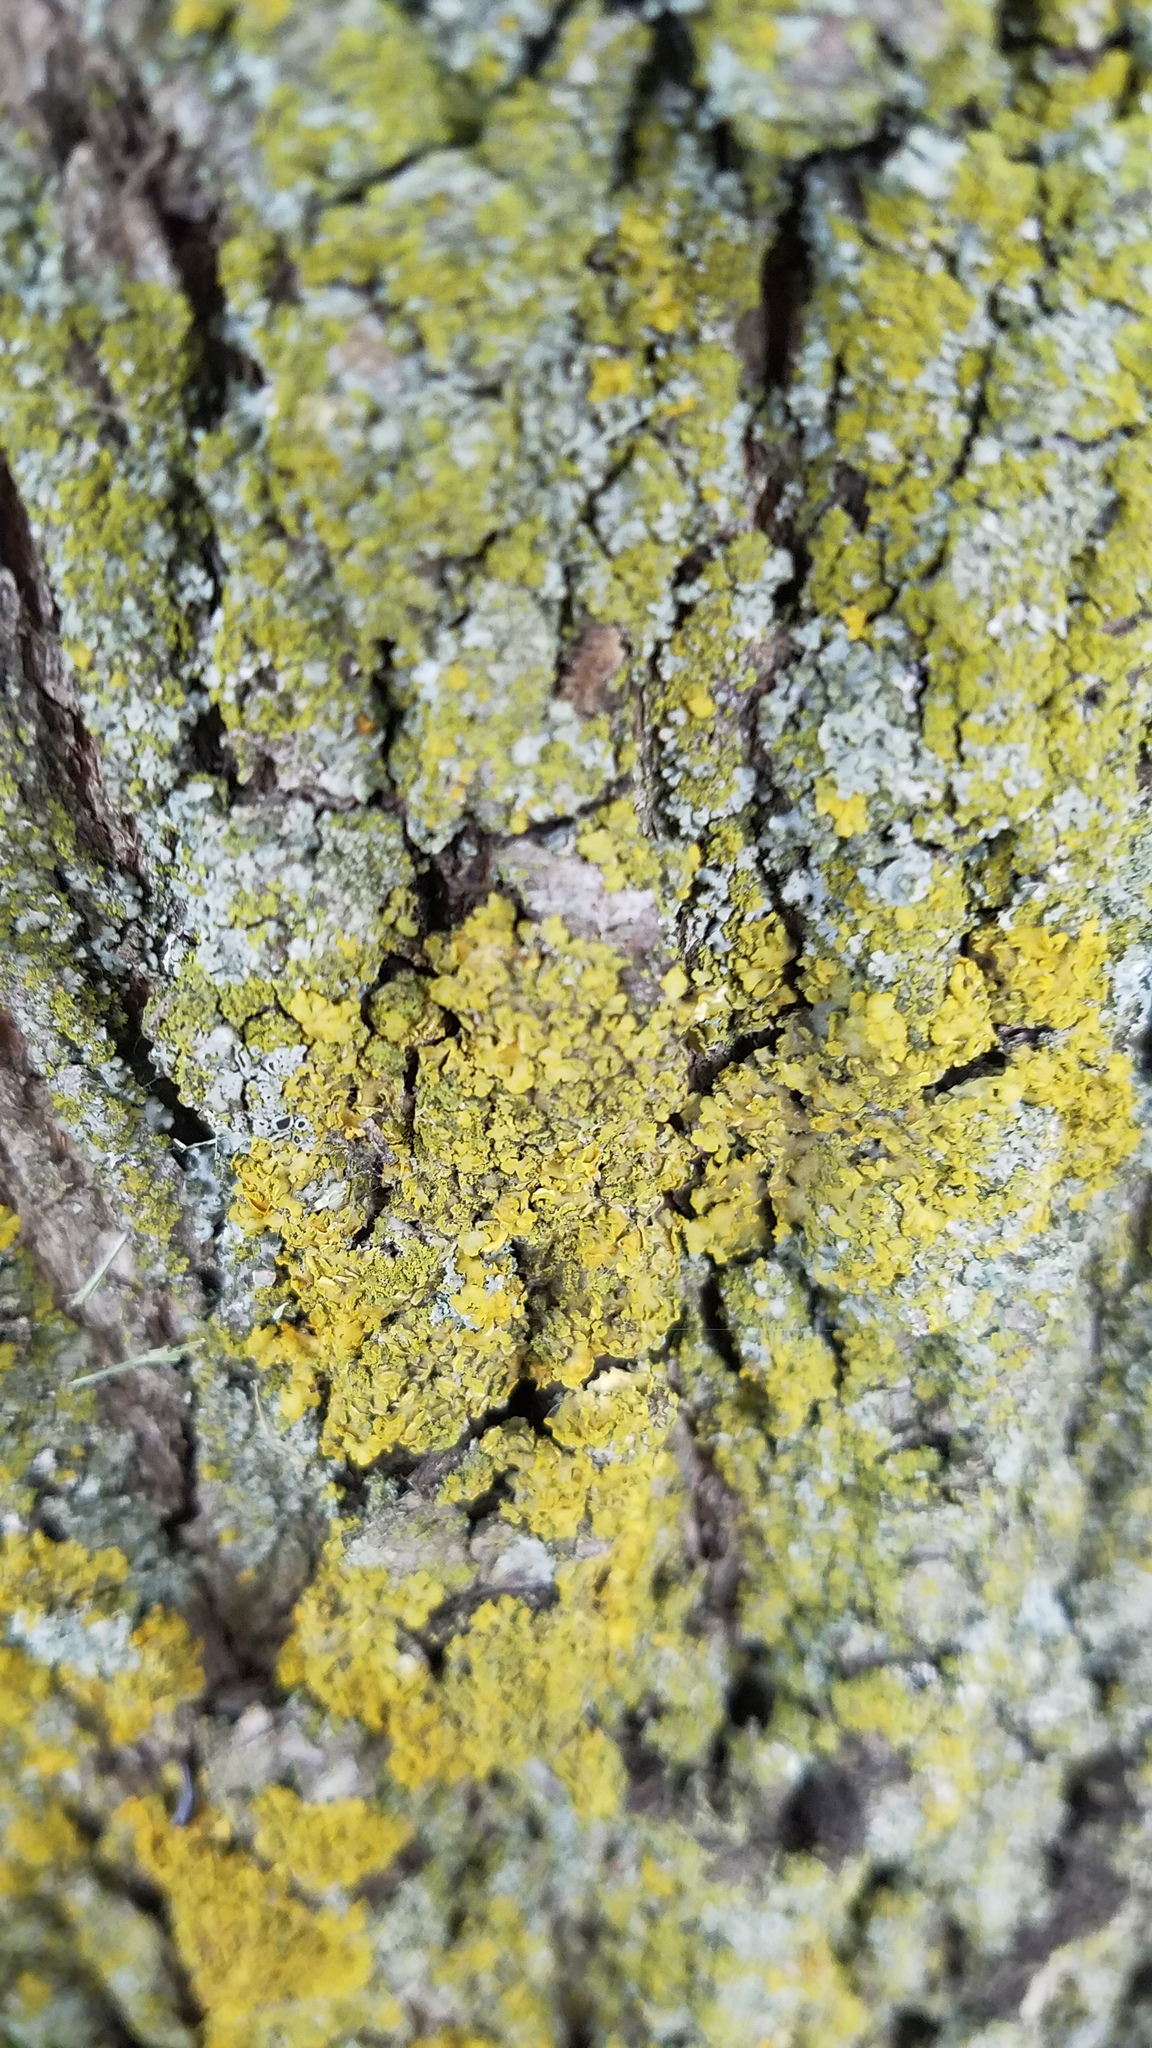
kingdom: Fungi
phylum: Ascomycota
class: Candelariomycetes
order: Candelariales
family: Candelariaceae
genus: Candelaria
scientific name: Candelaria concolor
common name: Candleflame lichen
